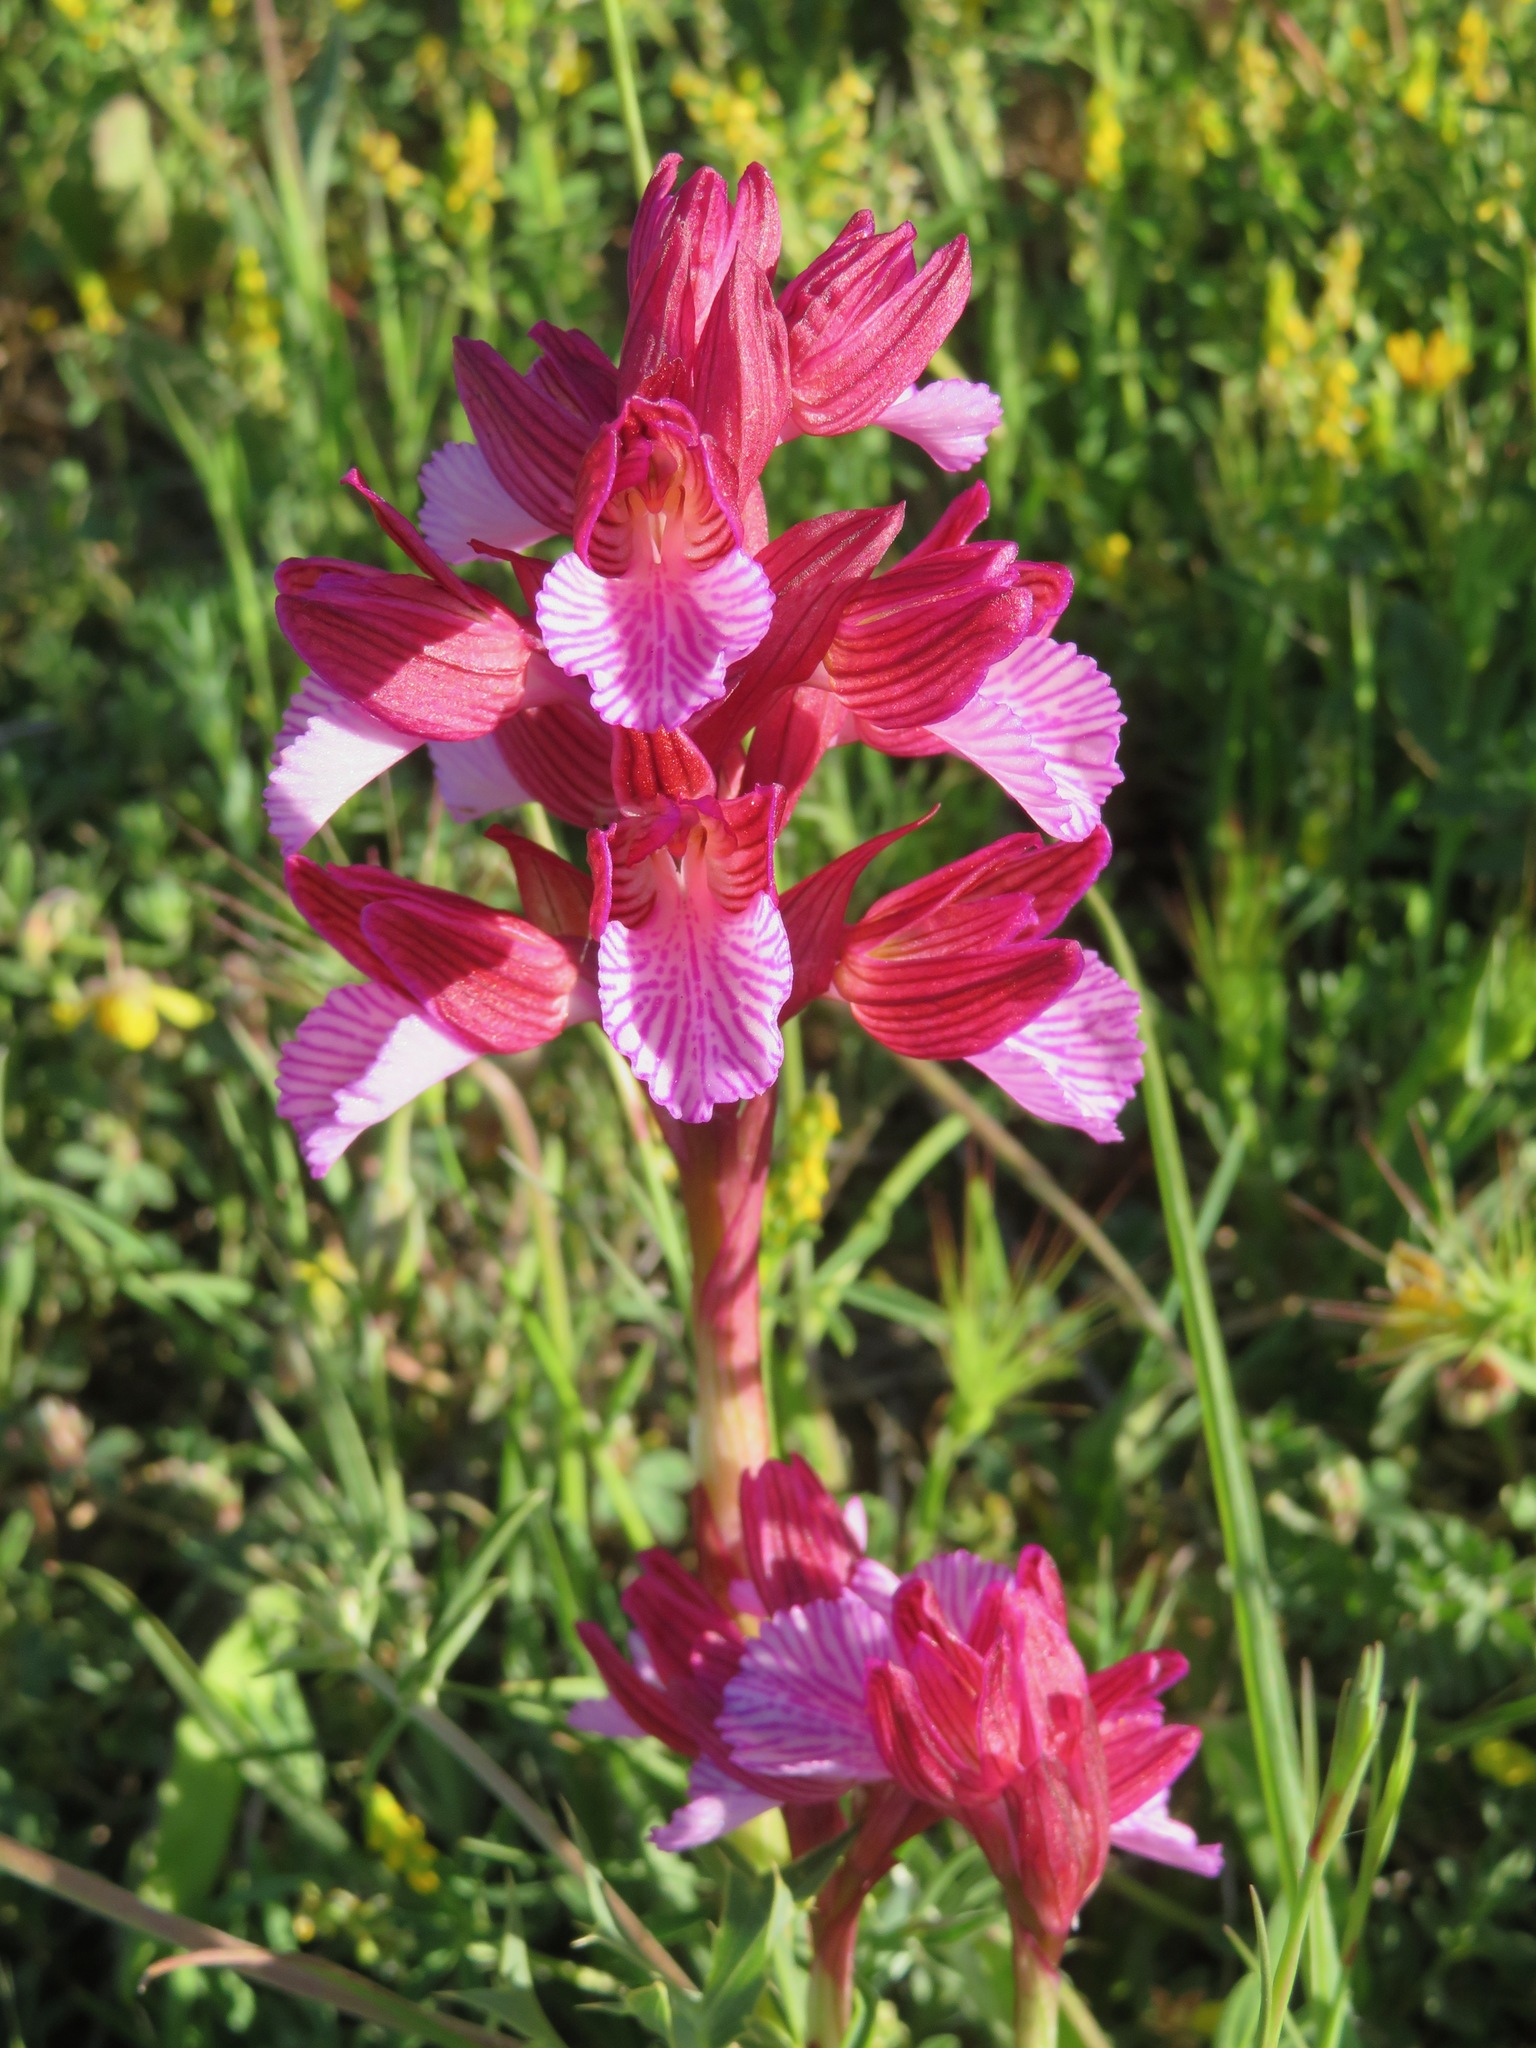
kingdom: Plantae
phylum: Tracheophyta
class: Liliopsida
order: Asparagales
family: Orchidaceae
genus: Anacamptis
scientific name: Anacamptis papilionacea
